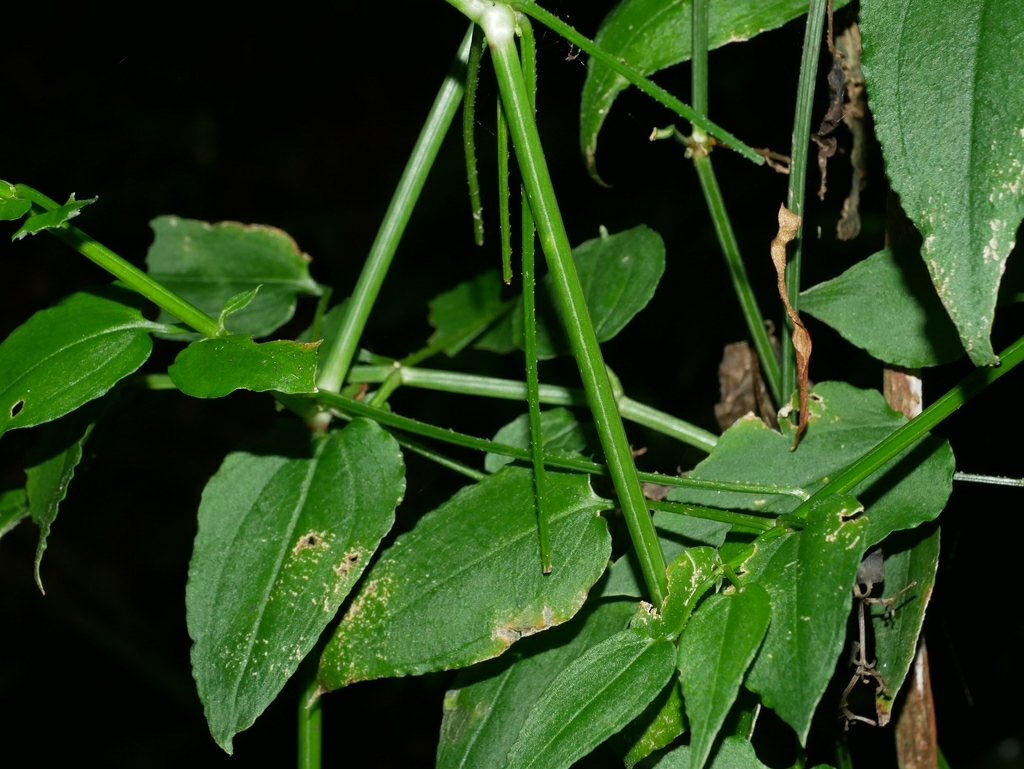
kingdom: Plantae
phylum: Tracheophyta
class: Magnoliopsida
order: Gentianales
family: Rubiaceae
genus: Rubia
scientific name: Rubia linii
